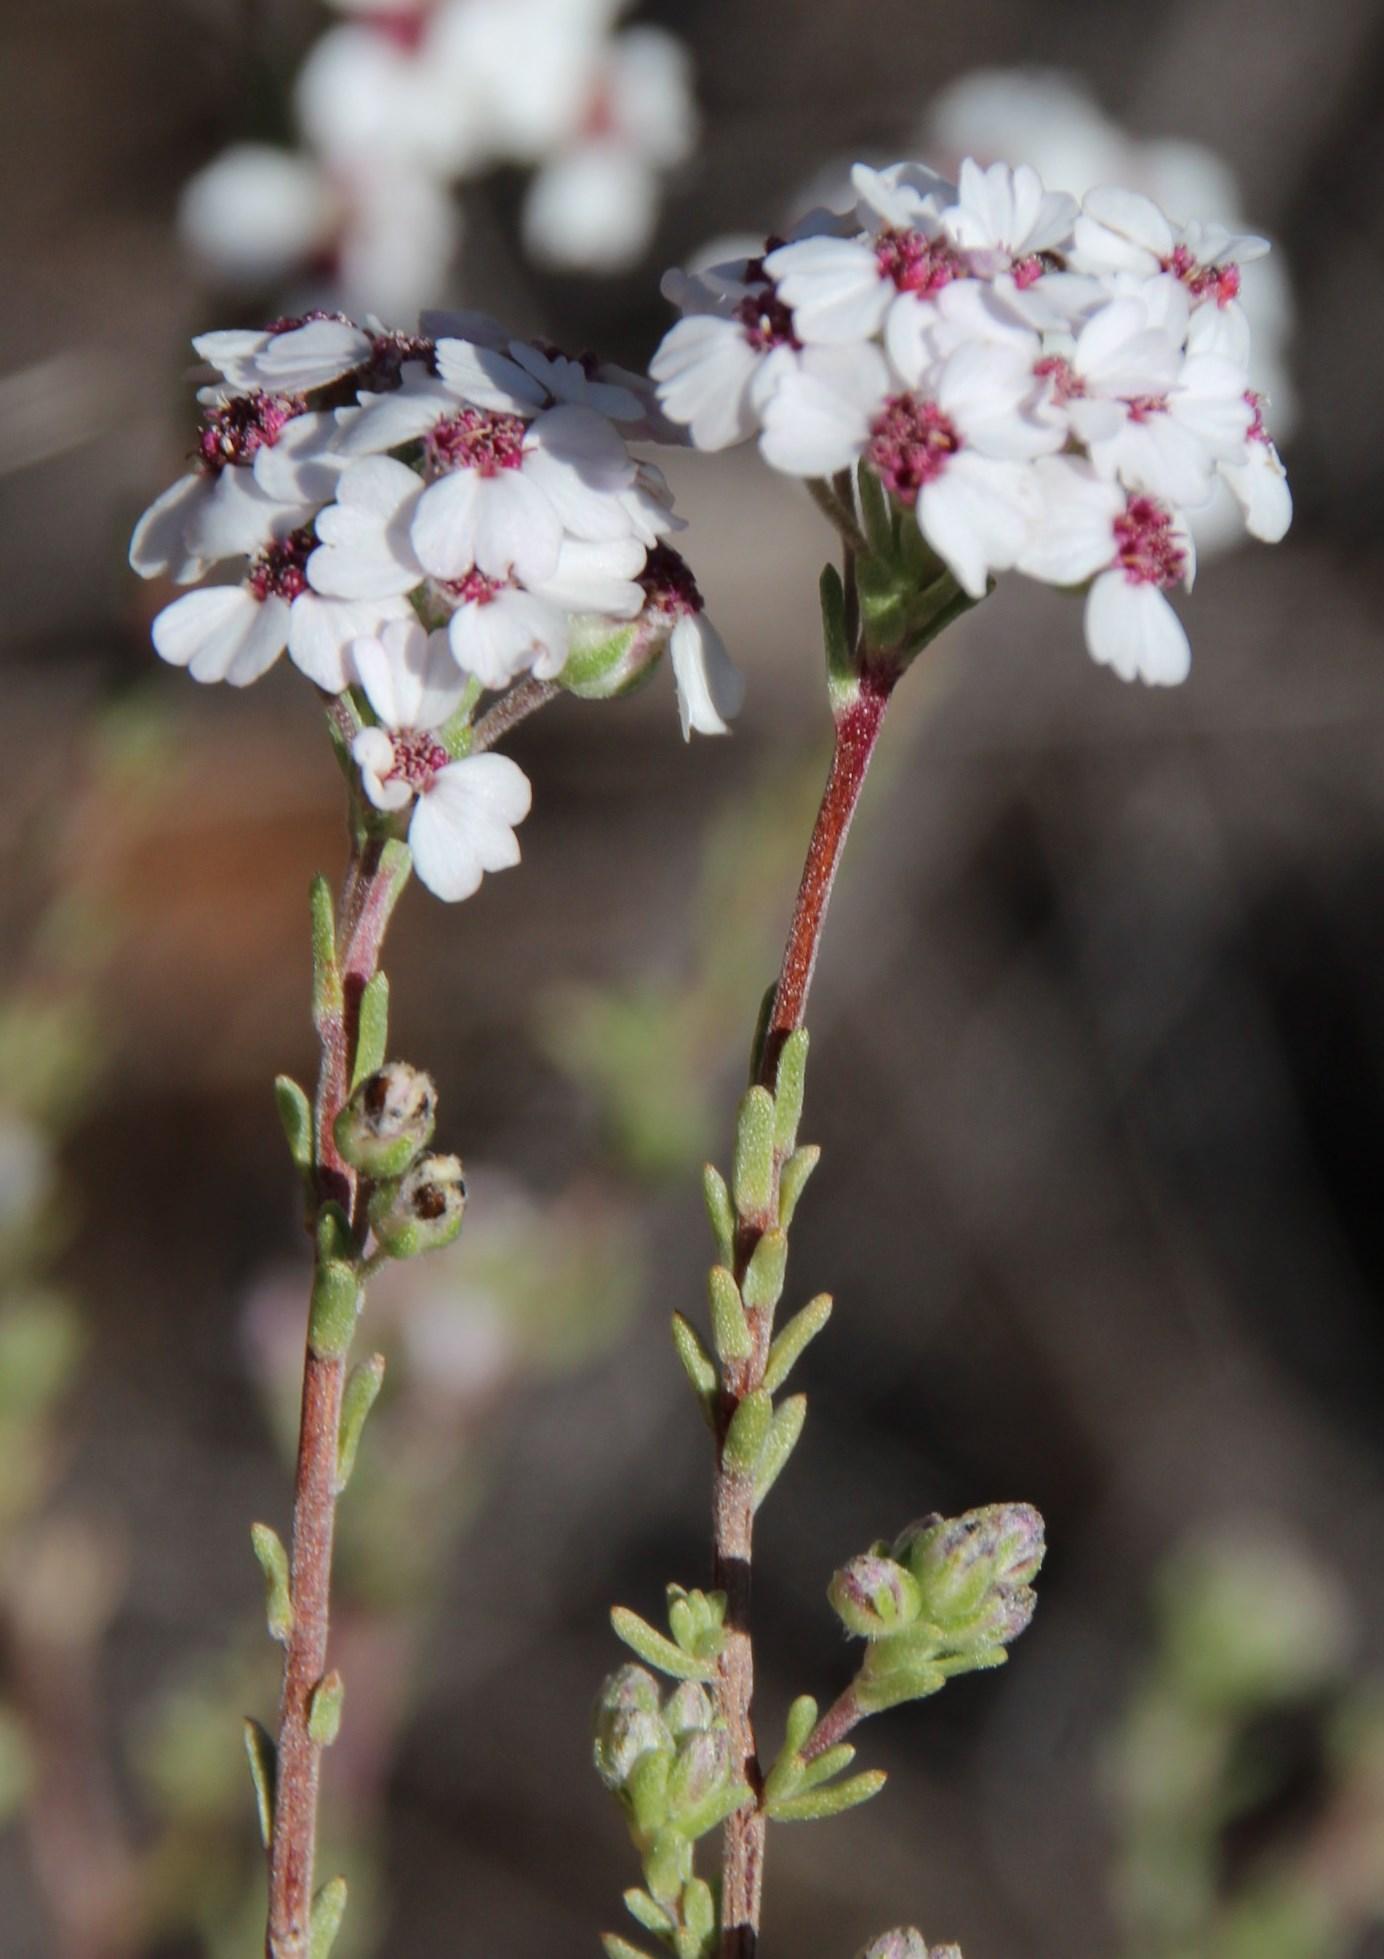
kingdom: Plantae
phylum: Tracheophyta
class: Magnoliopsida
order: Asterales
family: Asteraceae
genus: Eriocephalus
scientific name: Eriocephalus africanus
